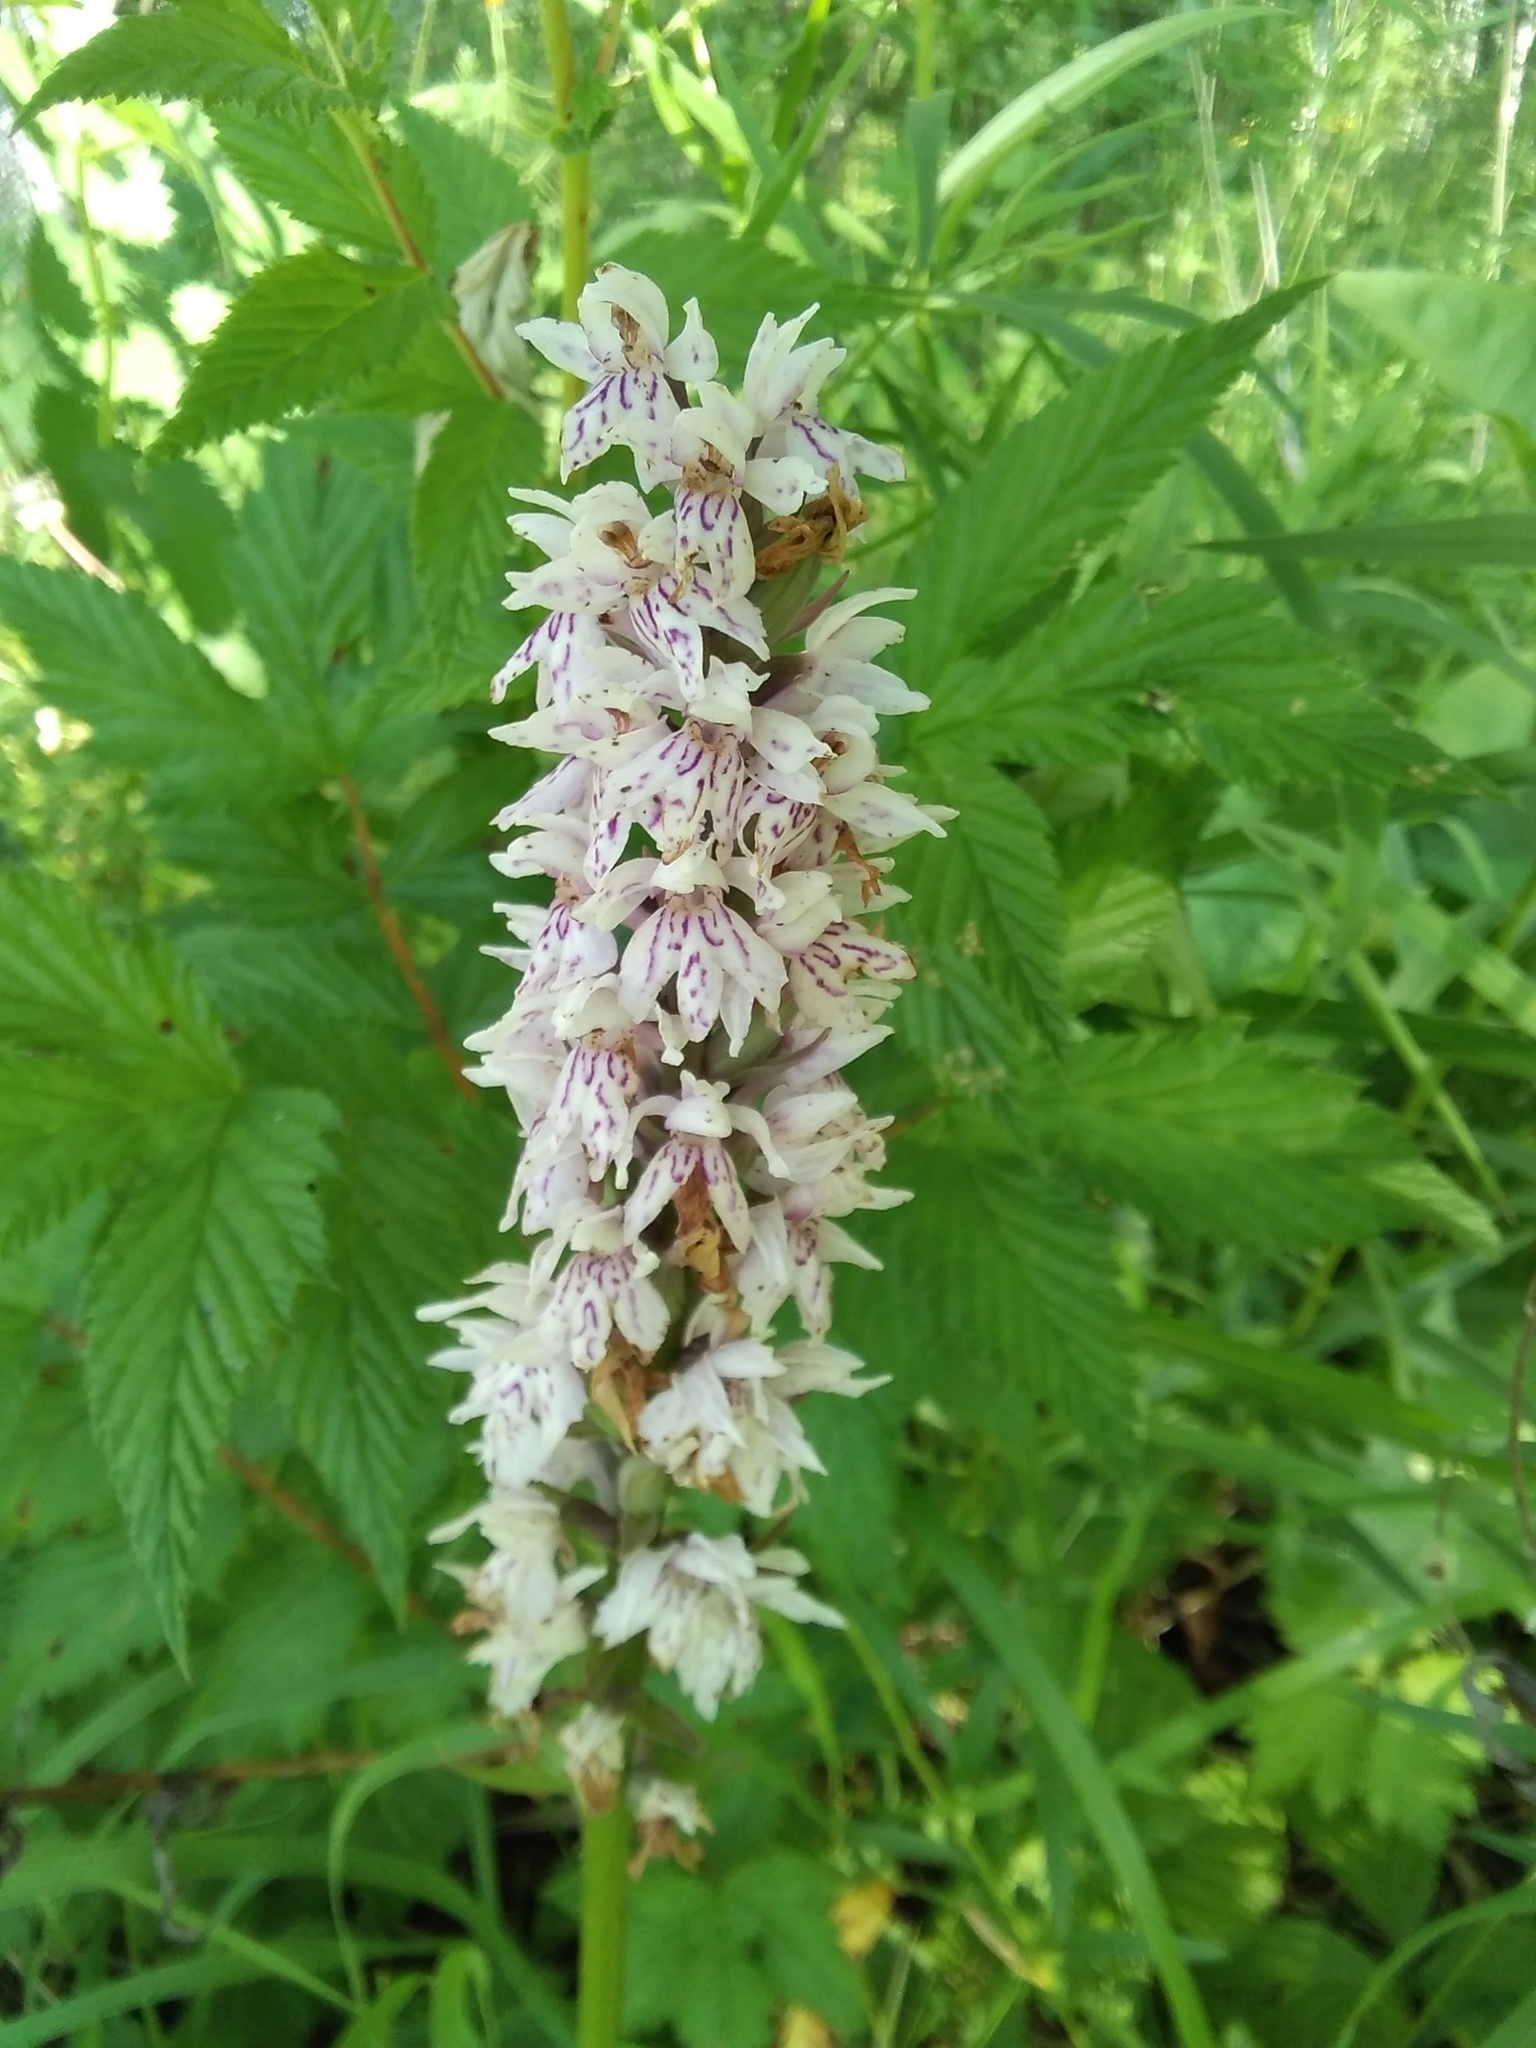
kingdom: Plantae
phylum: Tracheophyta
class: Liliopsida
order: Asparagales
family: Orchidaceae
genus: Dactylorhiza
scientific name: Dactylorhiza maculata
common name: Heath spotted-orchid
